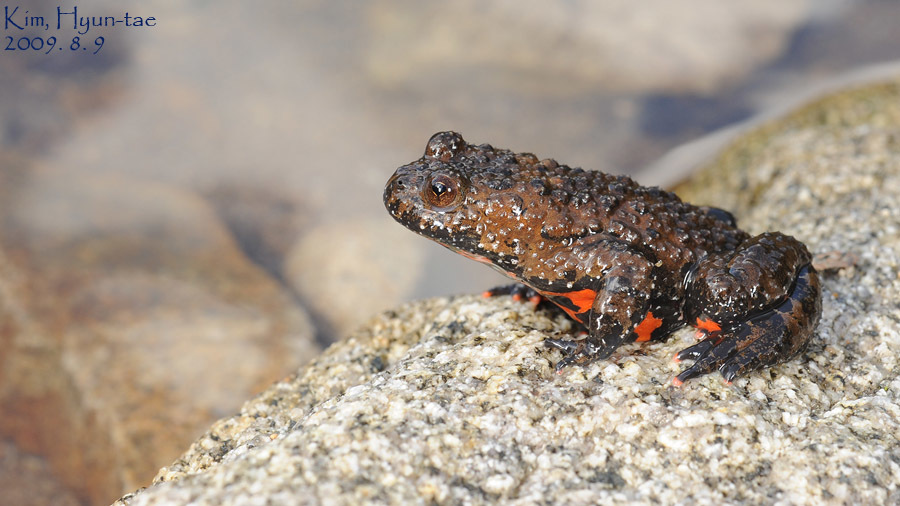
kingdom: Animalia
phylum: Chordata
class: Amphibia
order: Anura
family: Bombinatoridae
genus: Bombina
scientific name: Bombina orientalis
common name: Oriental firebelly toad
